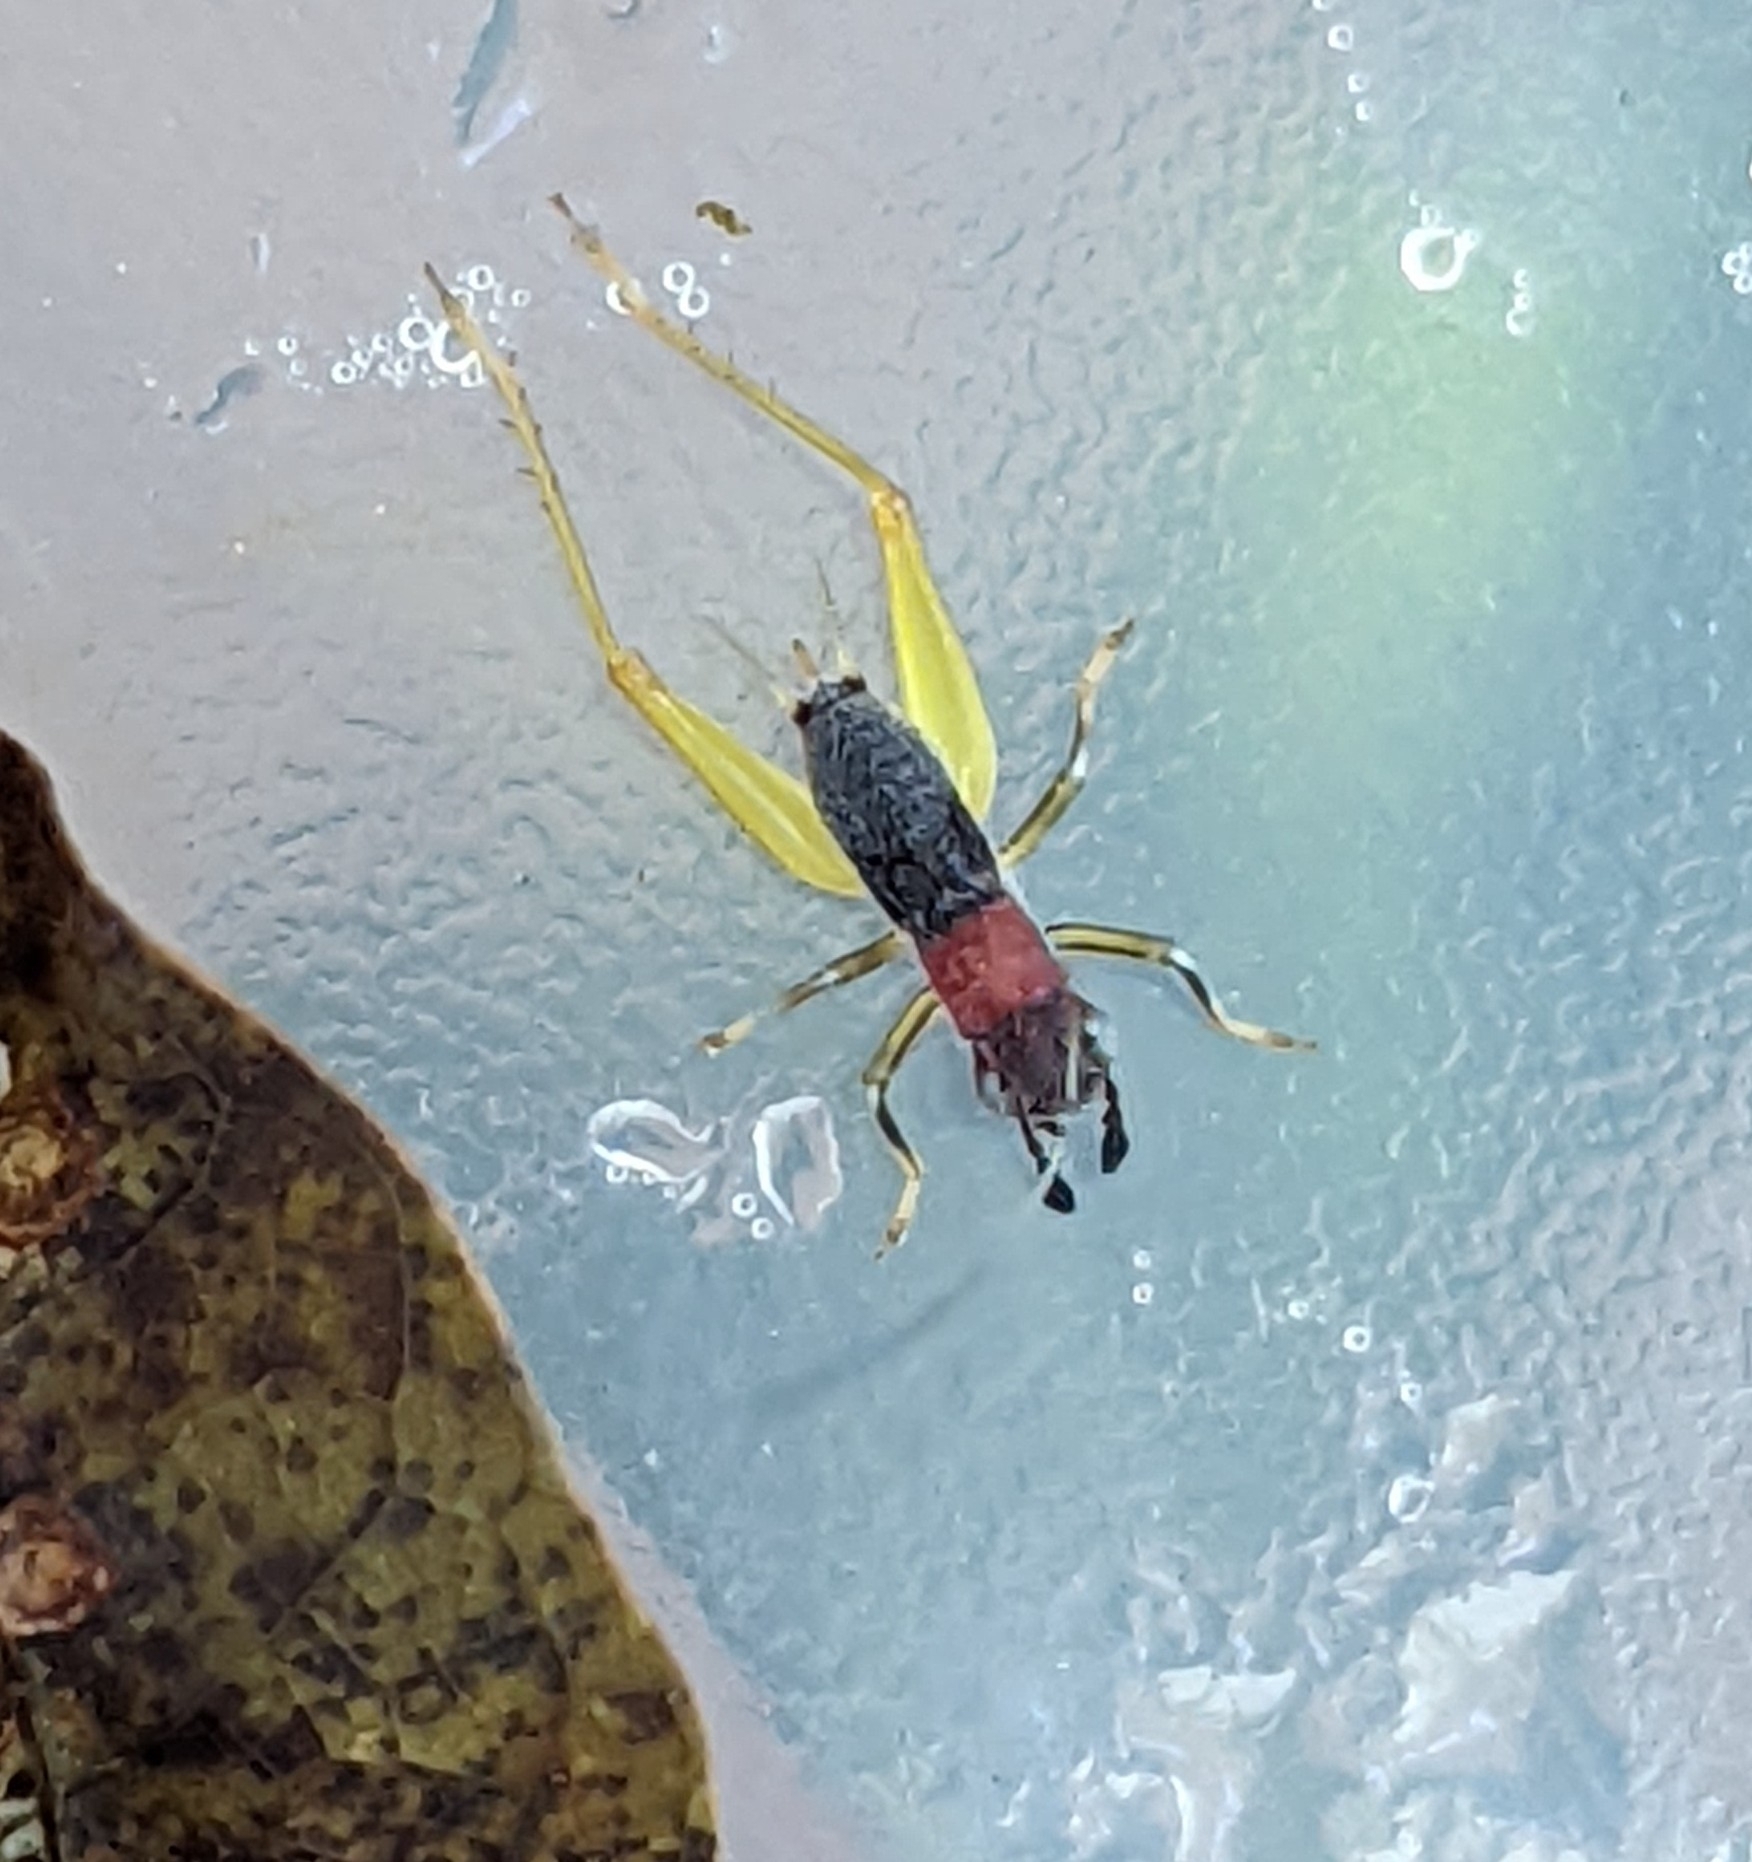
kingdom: Animalia
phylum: Arthropoda
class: Insecta
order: Orthoptera
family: Trigonidiidae
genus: Phyllopalpus
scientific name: Phyllopalpus pulchellus
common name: Handsome trig
